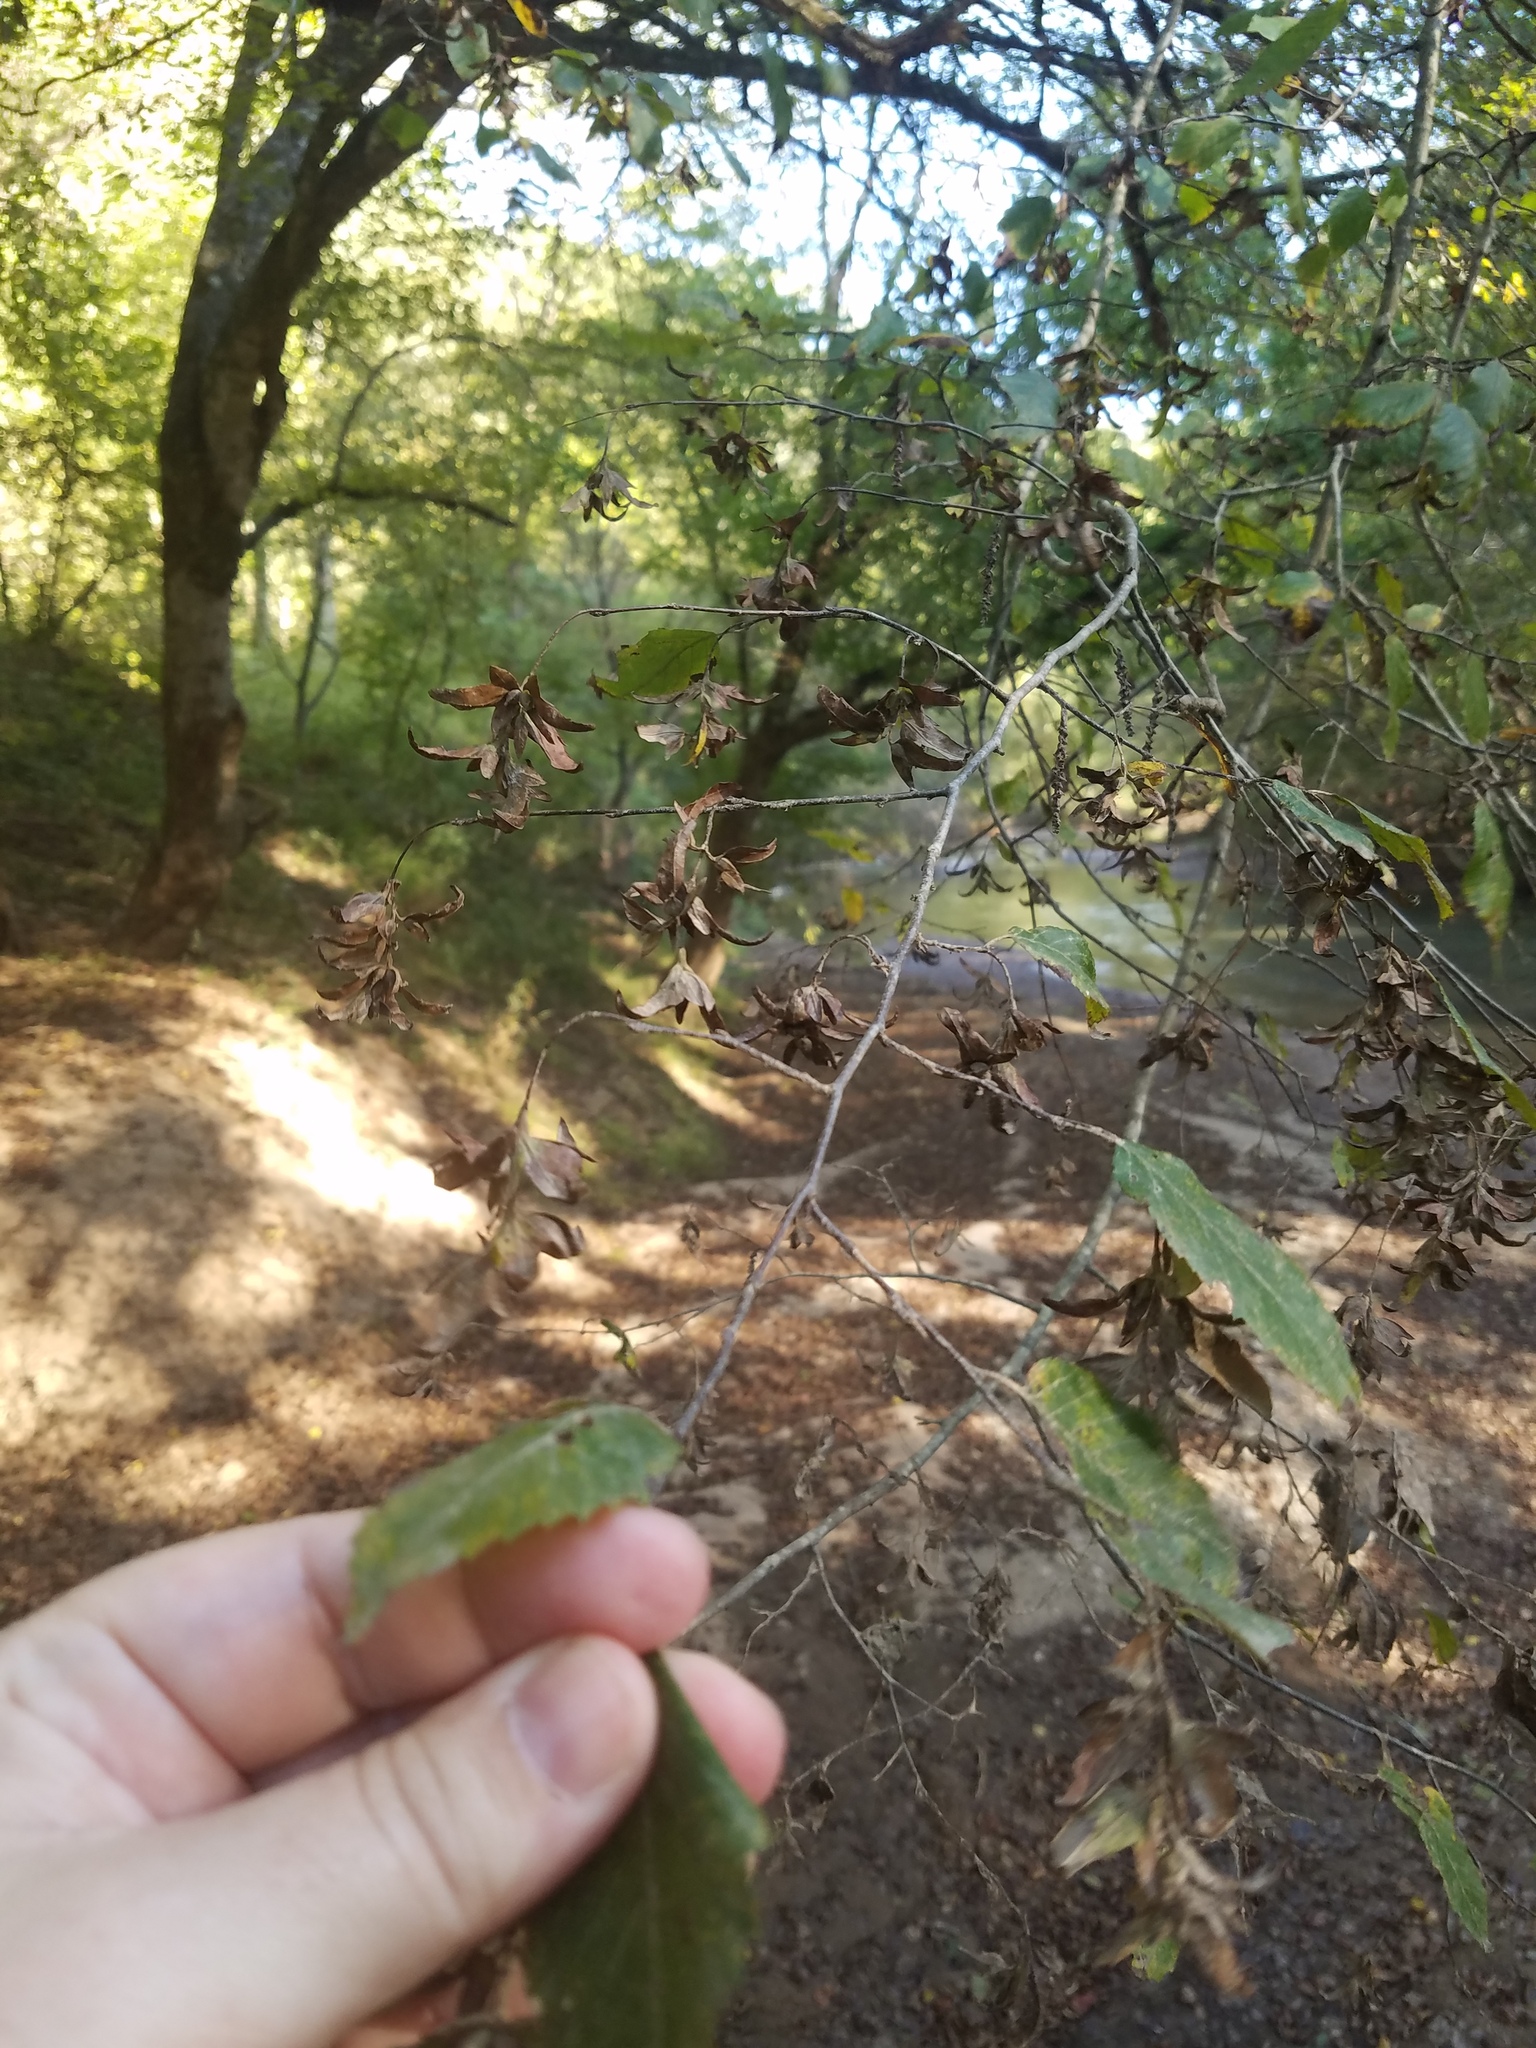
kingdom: Plantae
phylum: Tracheophyta
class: Magnoliopsida
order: Fagales
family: Betulaceae
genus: Carpinus
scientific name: Carpinus caroliniana
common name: American hornbeam
